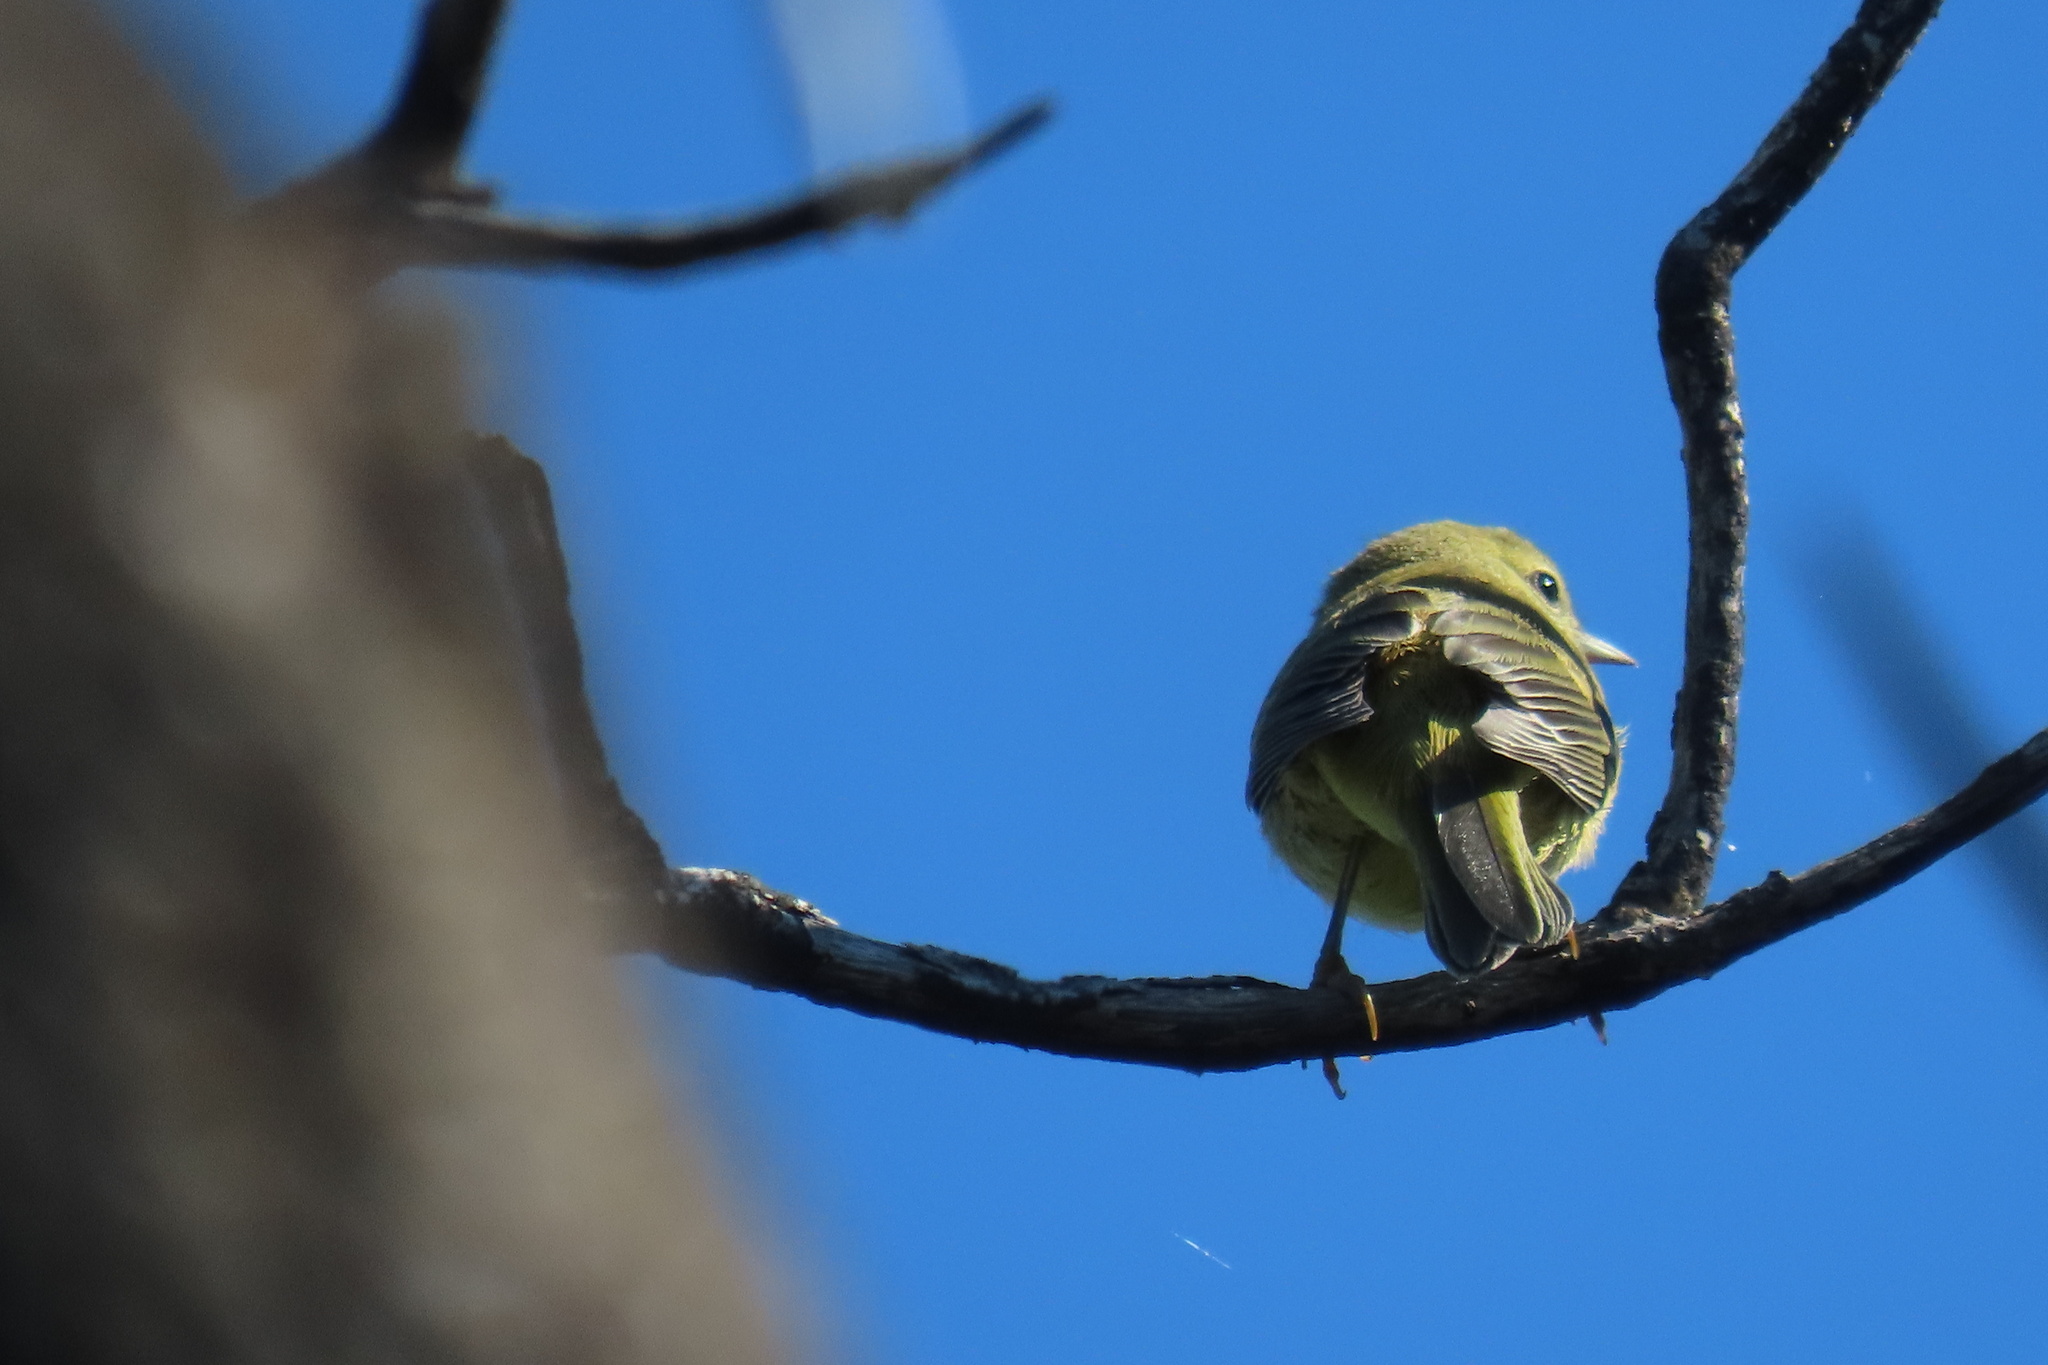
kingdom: Animalia
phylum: Chordata
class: Aves
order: Passeriformes
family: Parulidae
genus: Leiothlypis
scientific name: Leiothlypis celata
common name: Orange-crowned warbler
